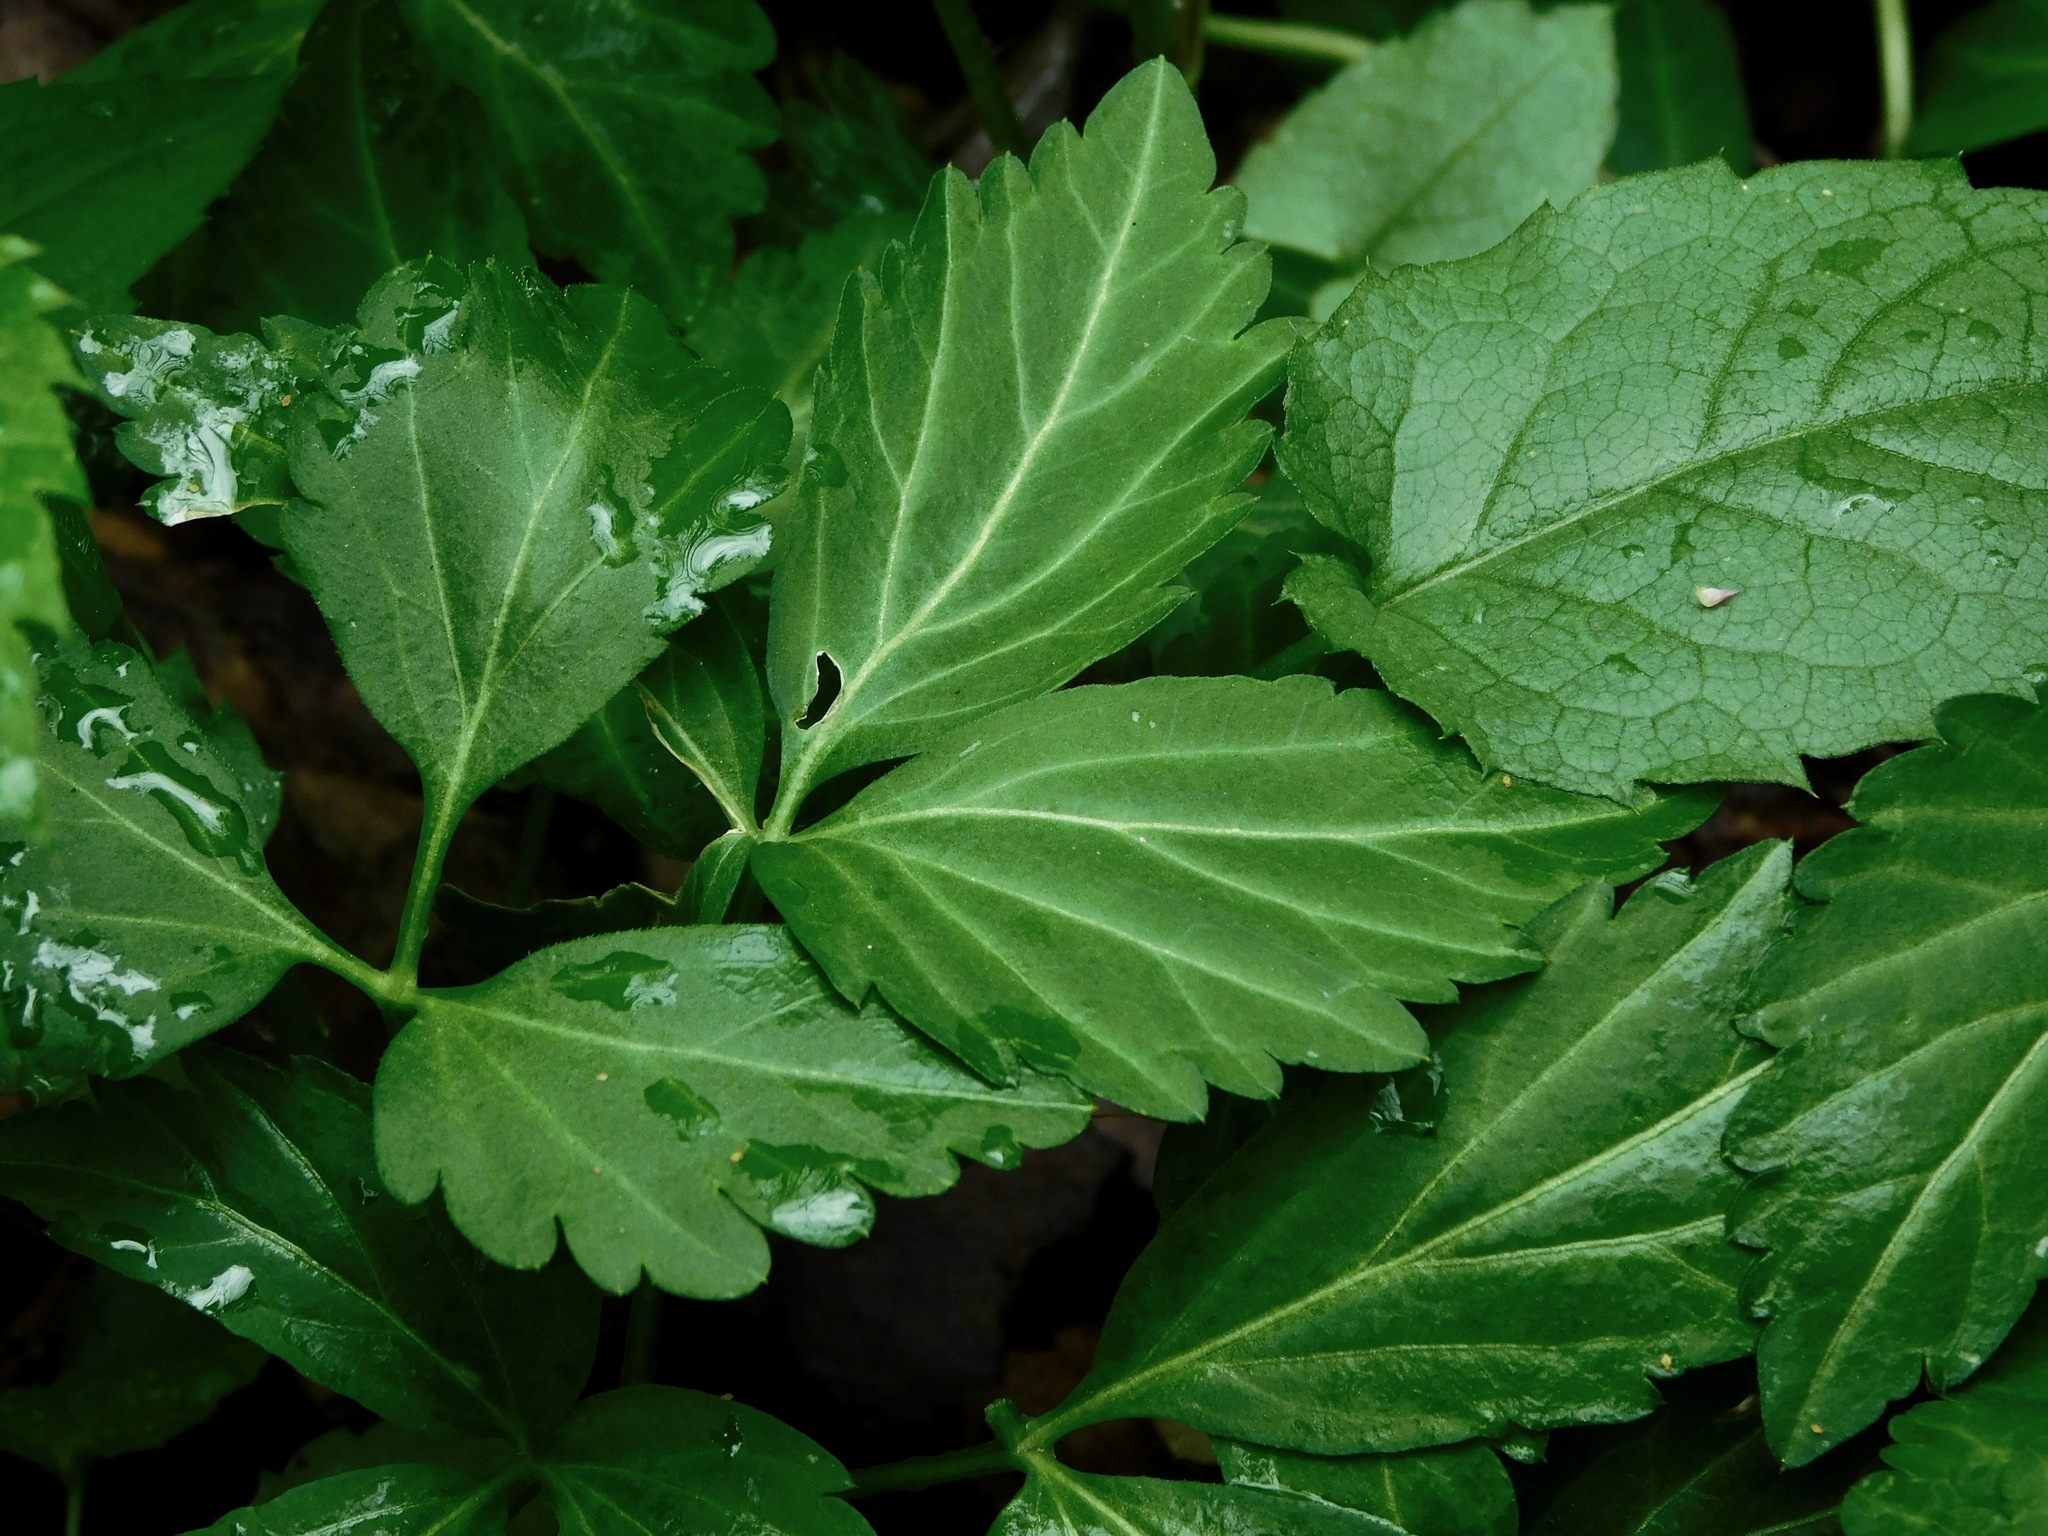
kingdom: Plantae
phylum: Tracheophyta
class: Magnoliopsida
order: Brassicales
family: Brassicaceae
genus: Cardamine
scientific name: Cardamine diphylla
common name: Broad-leaved toothwort
